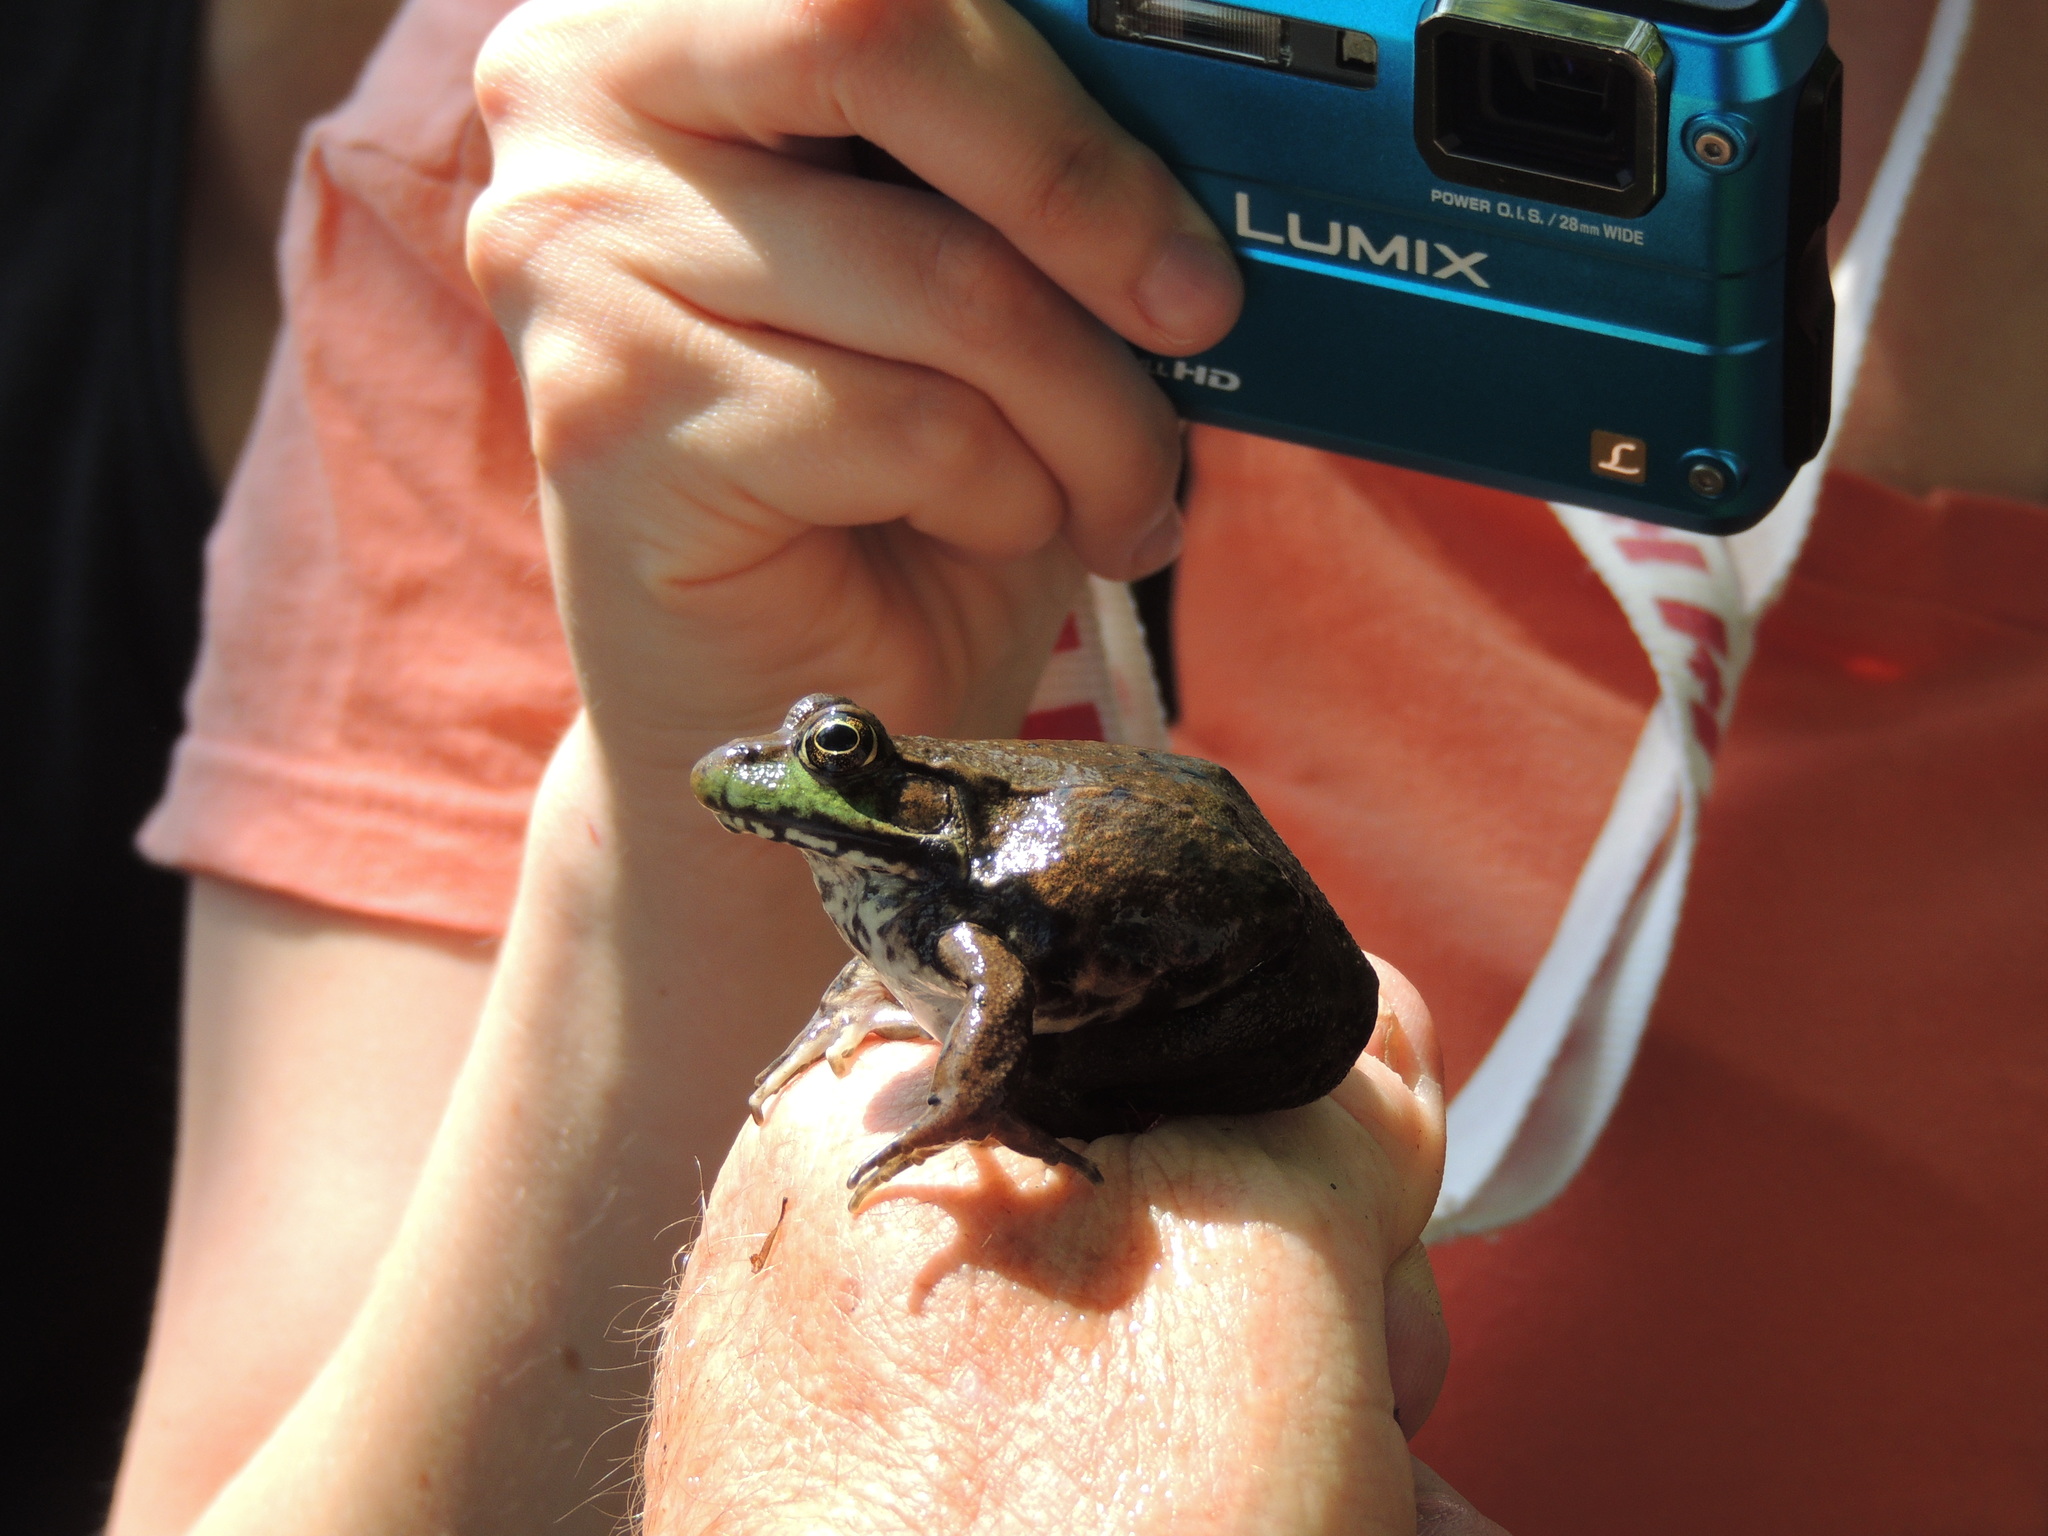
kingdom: Animalia
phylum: Chordata
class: Amphibia
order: Anura
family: Ranidae
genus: Lithobates
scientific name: Lithobates clamitans
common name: Green frog
